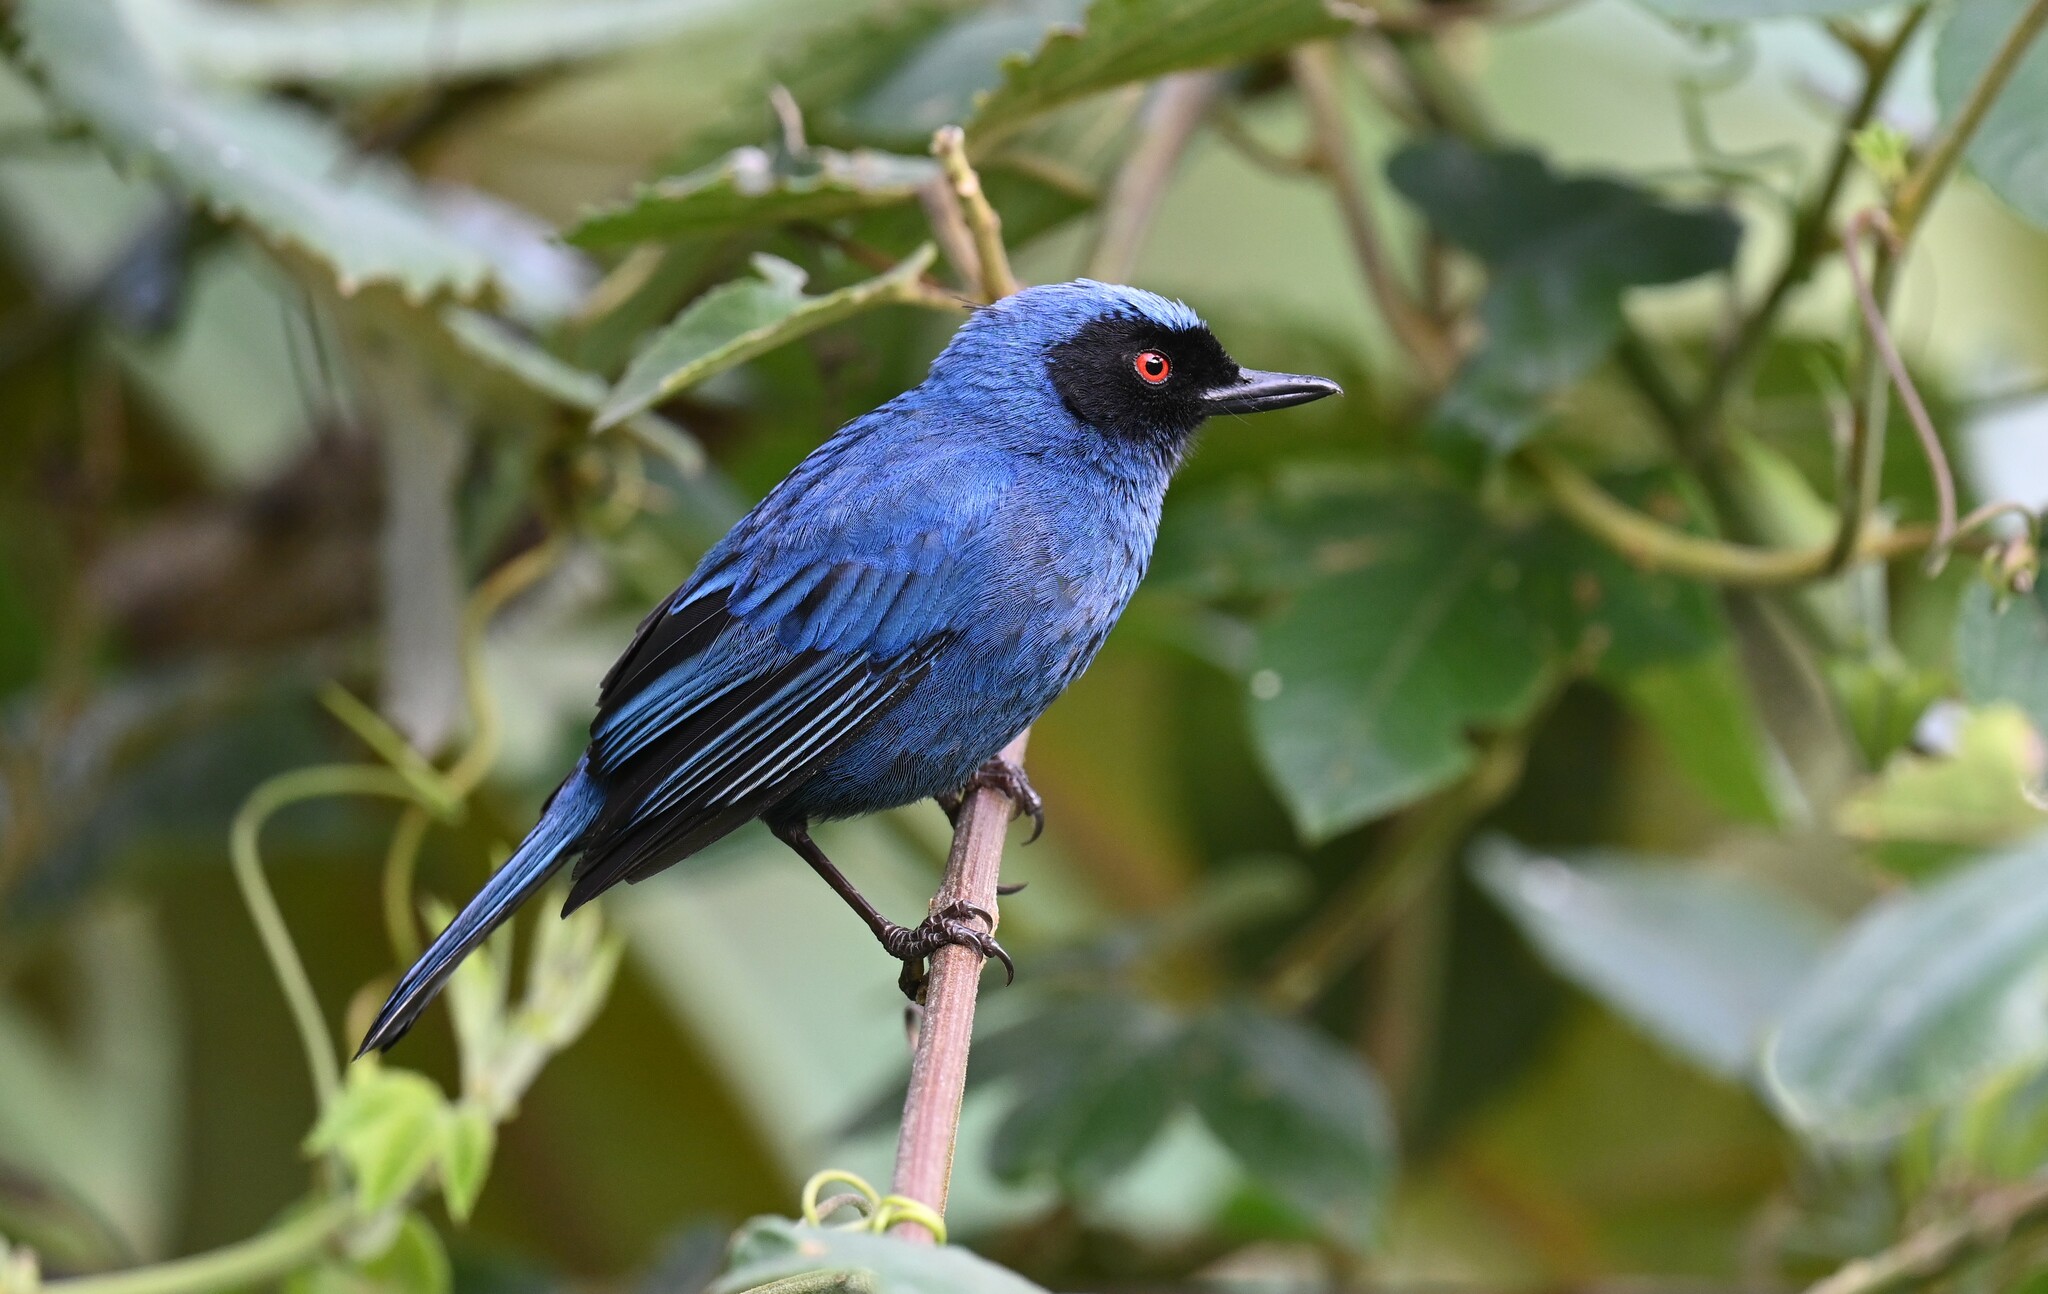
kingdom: Animalia
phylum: Chordata
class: Aves
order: Passeriformes
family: Thraupidae
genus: Diglossa
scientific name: Diglossa cyanea
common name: Masked flowerpiercer
